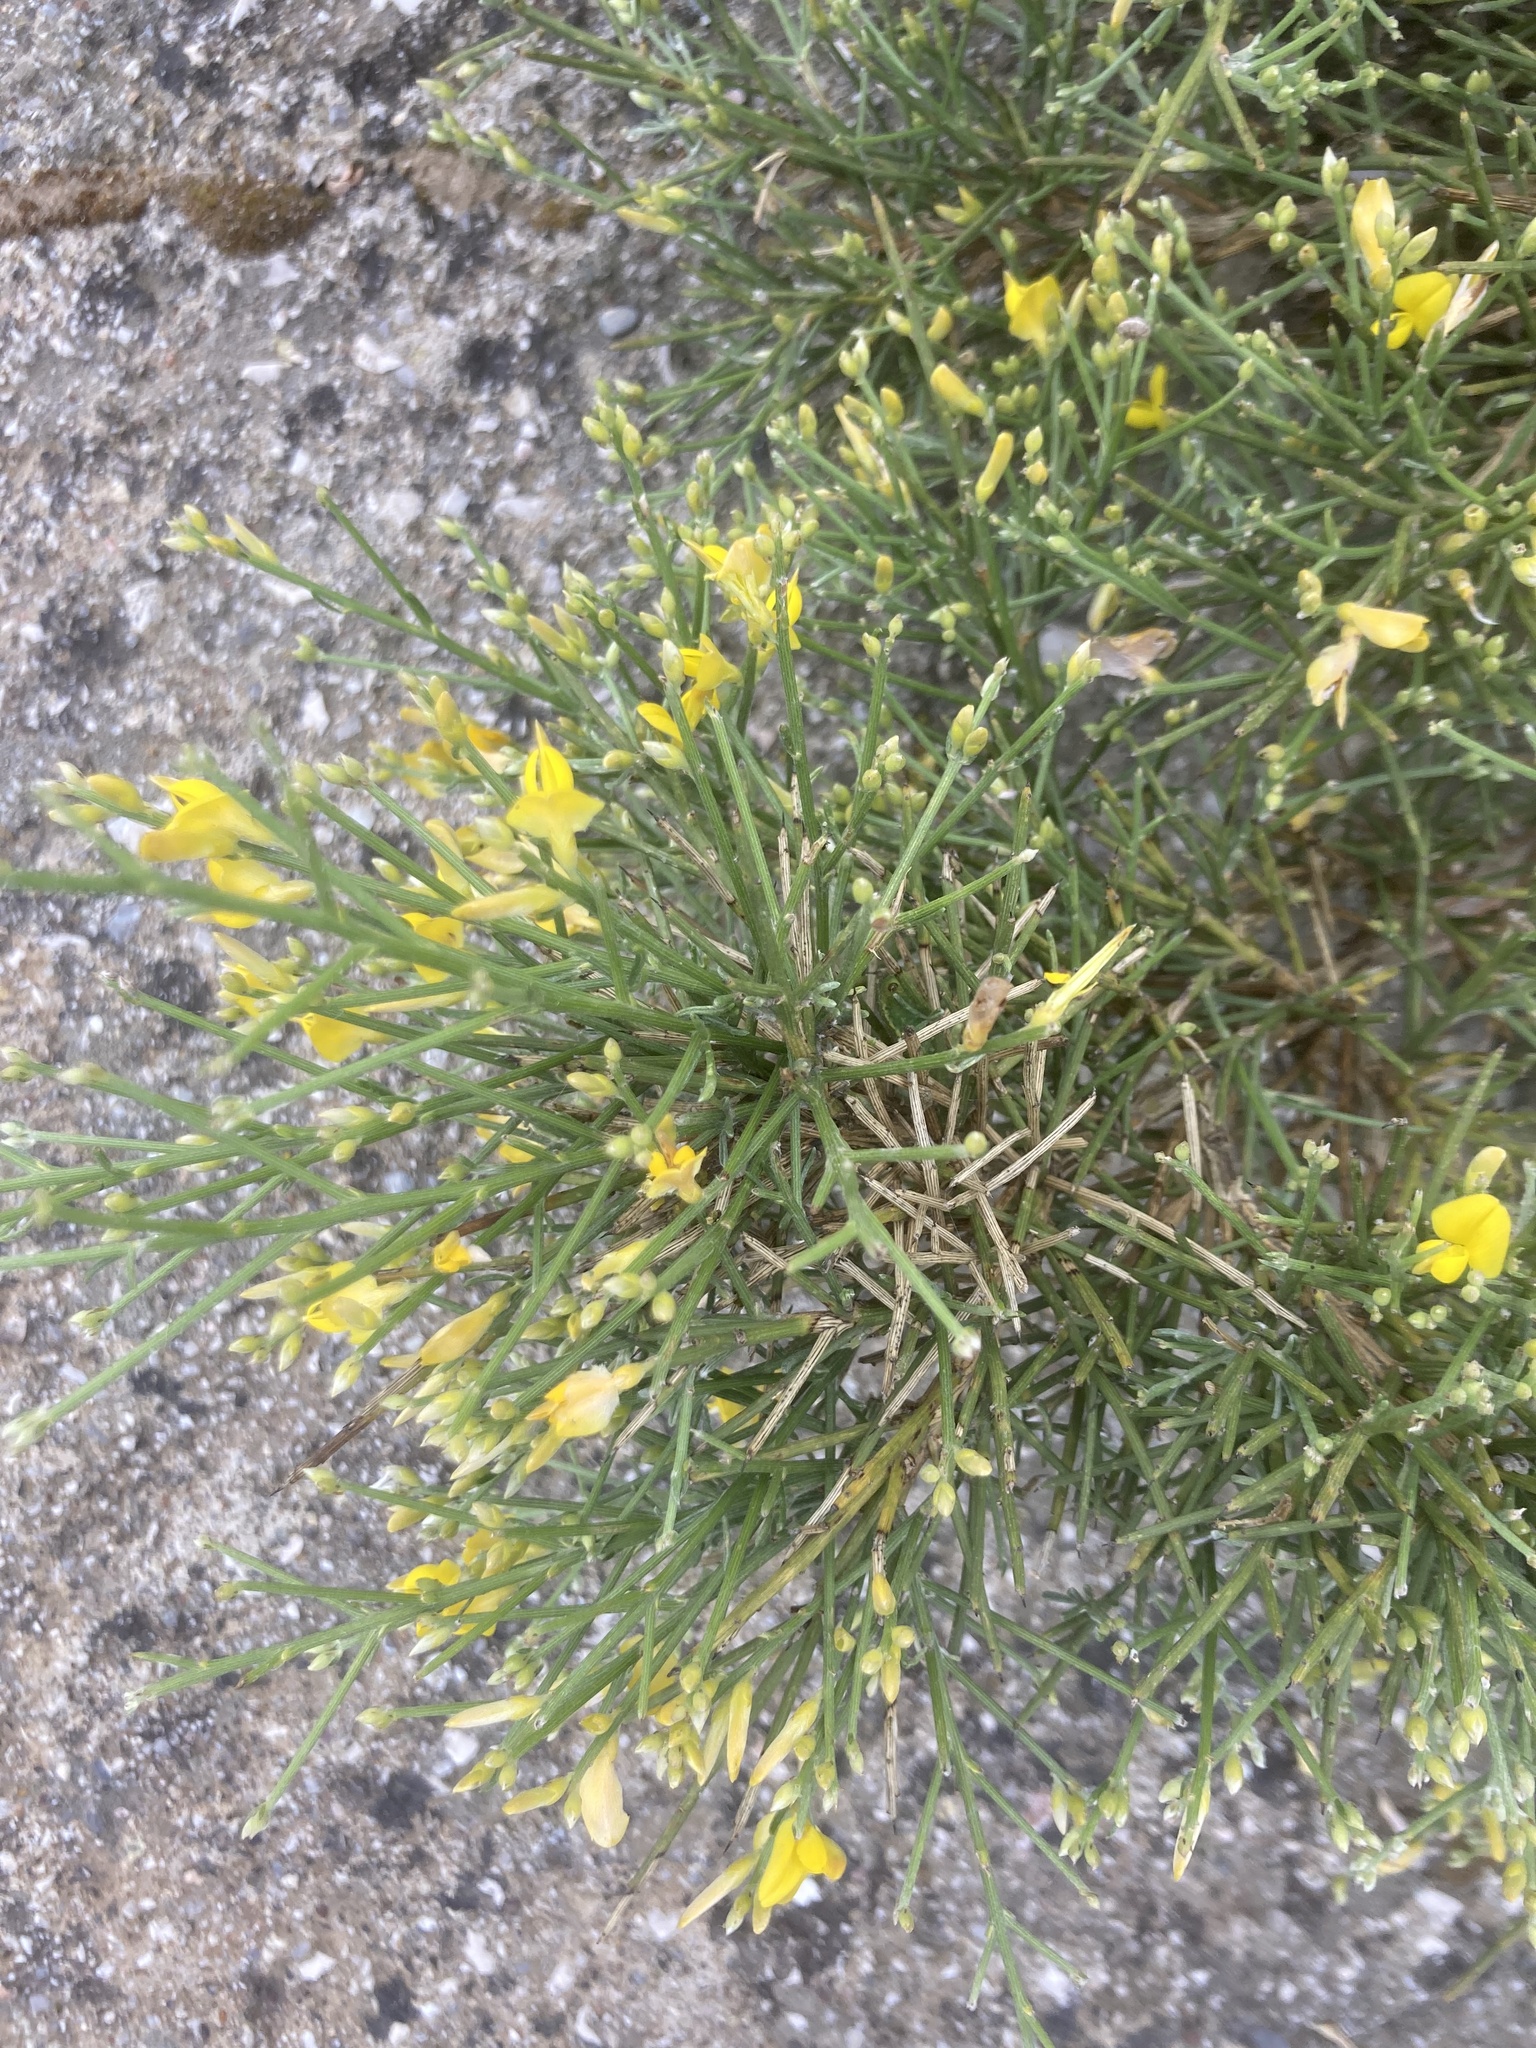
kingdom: Plantae
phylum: Tracheophyta
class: Magnoliopsida
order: Fabales
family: Fabaceae
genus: Genista
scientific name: Genista acanthoclada
